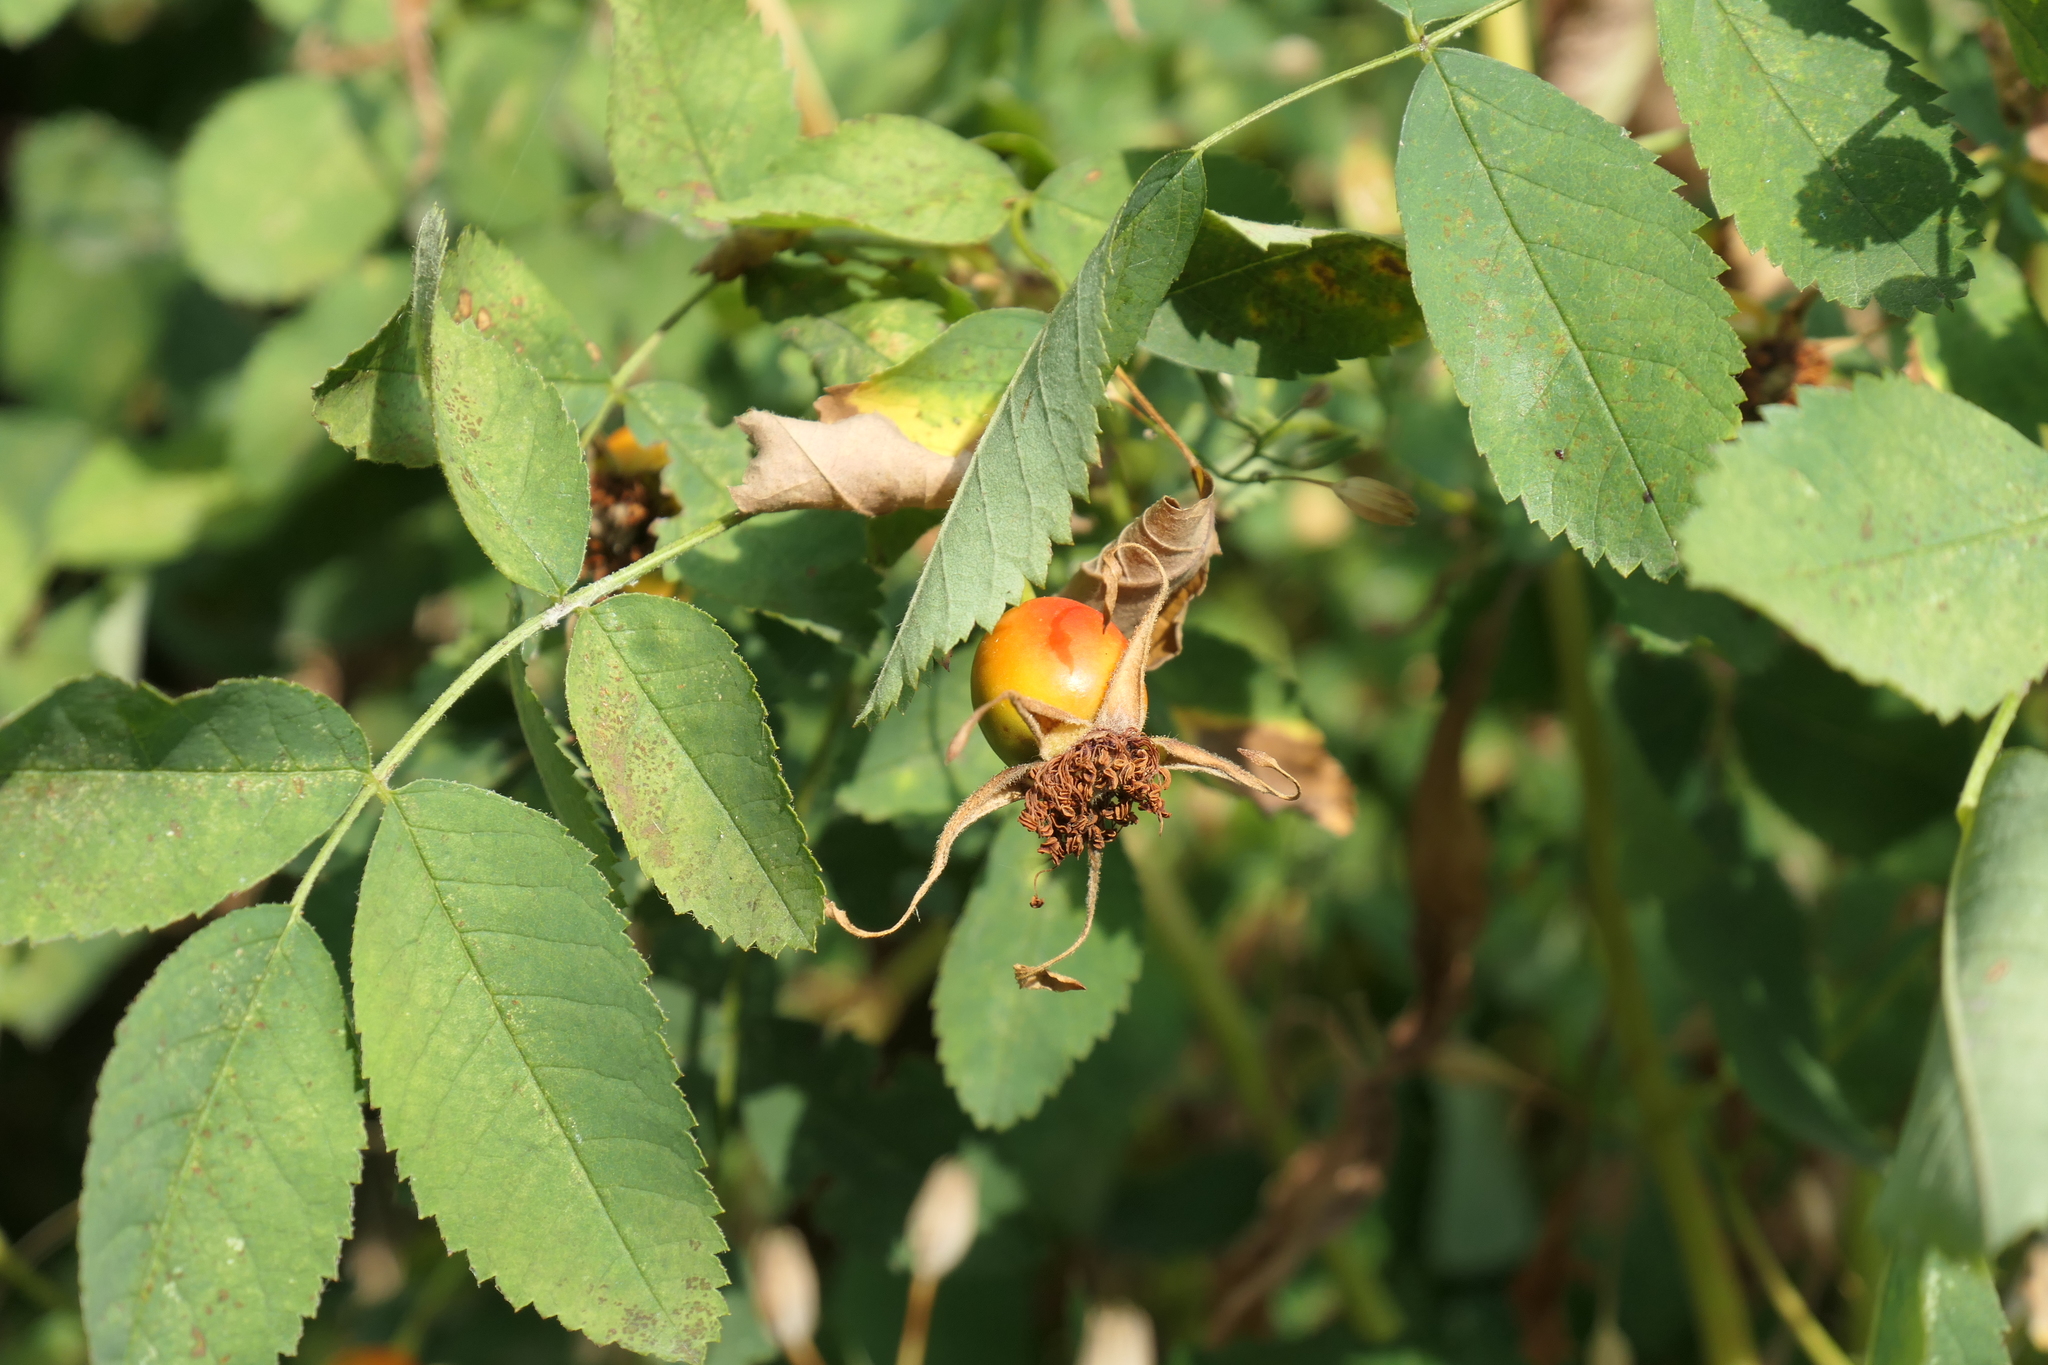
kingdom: Plantae
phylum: Tracheophyta
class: Magnoliopsida
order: Rosales
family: Rosaceae
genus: Rosa
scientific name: Rosa nutkana
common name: Nootka rose
